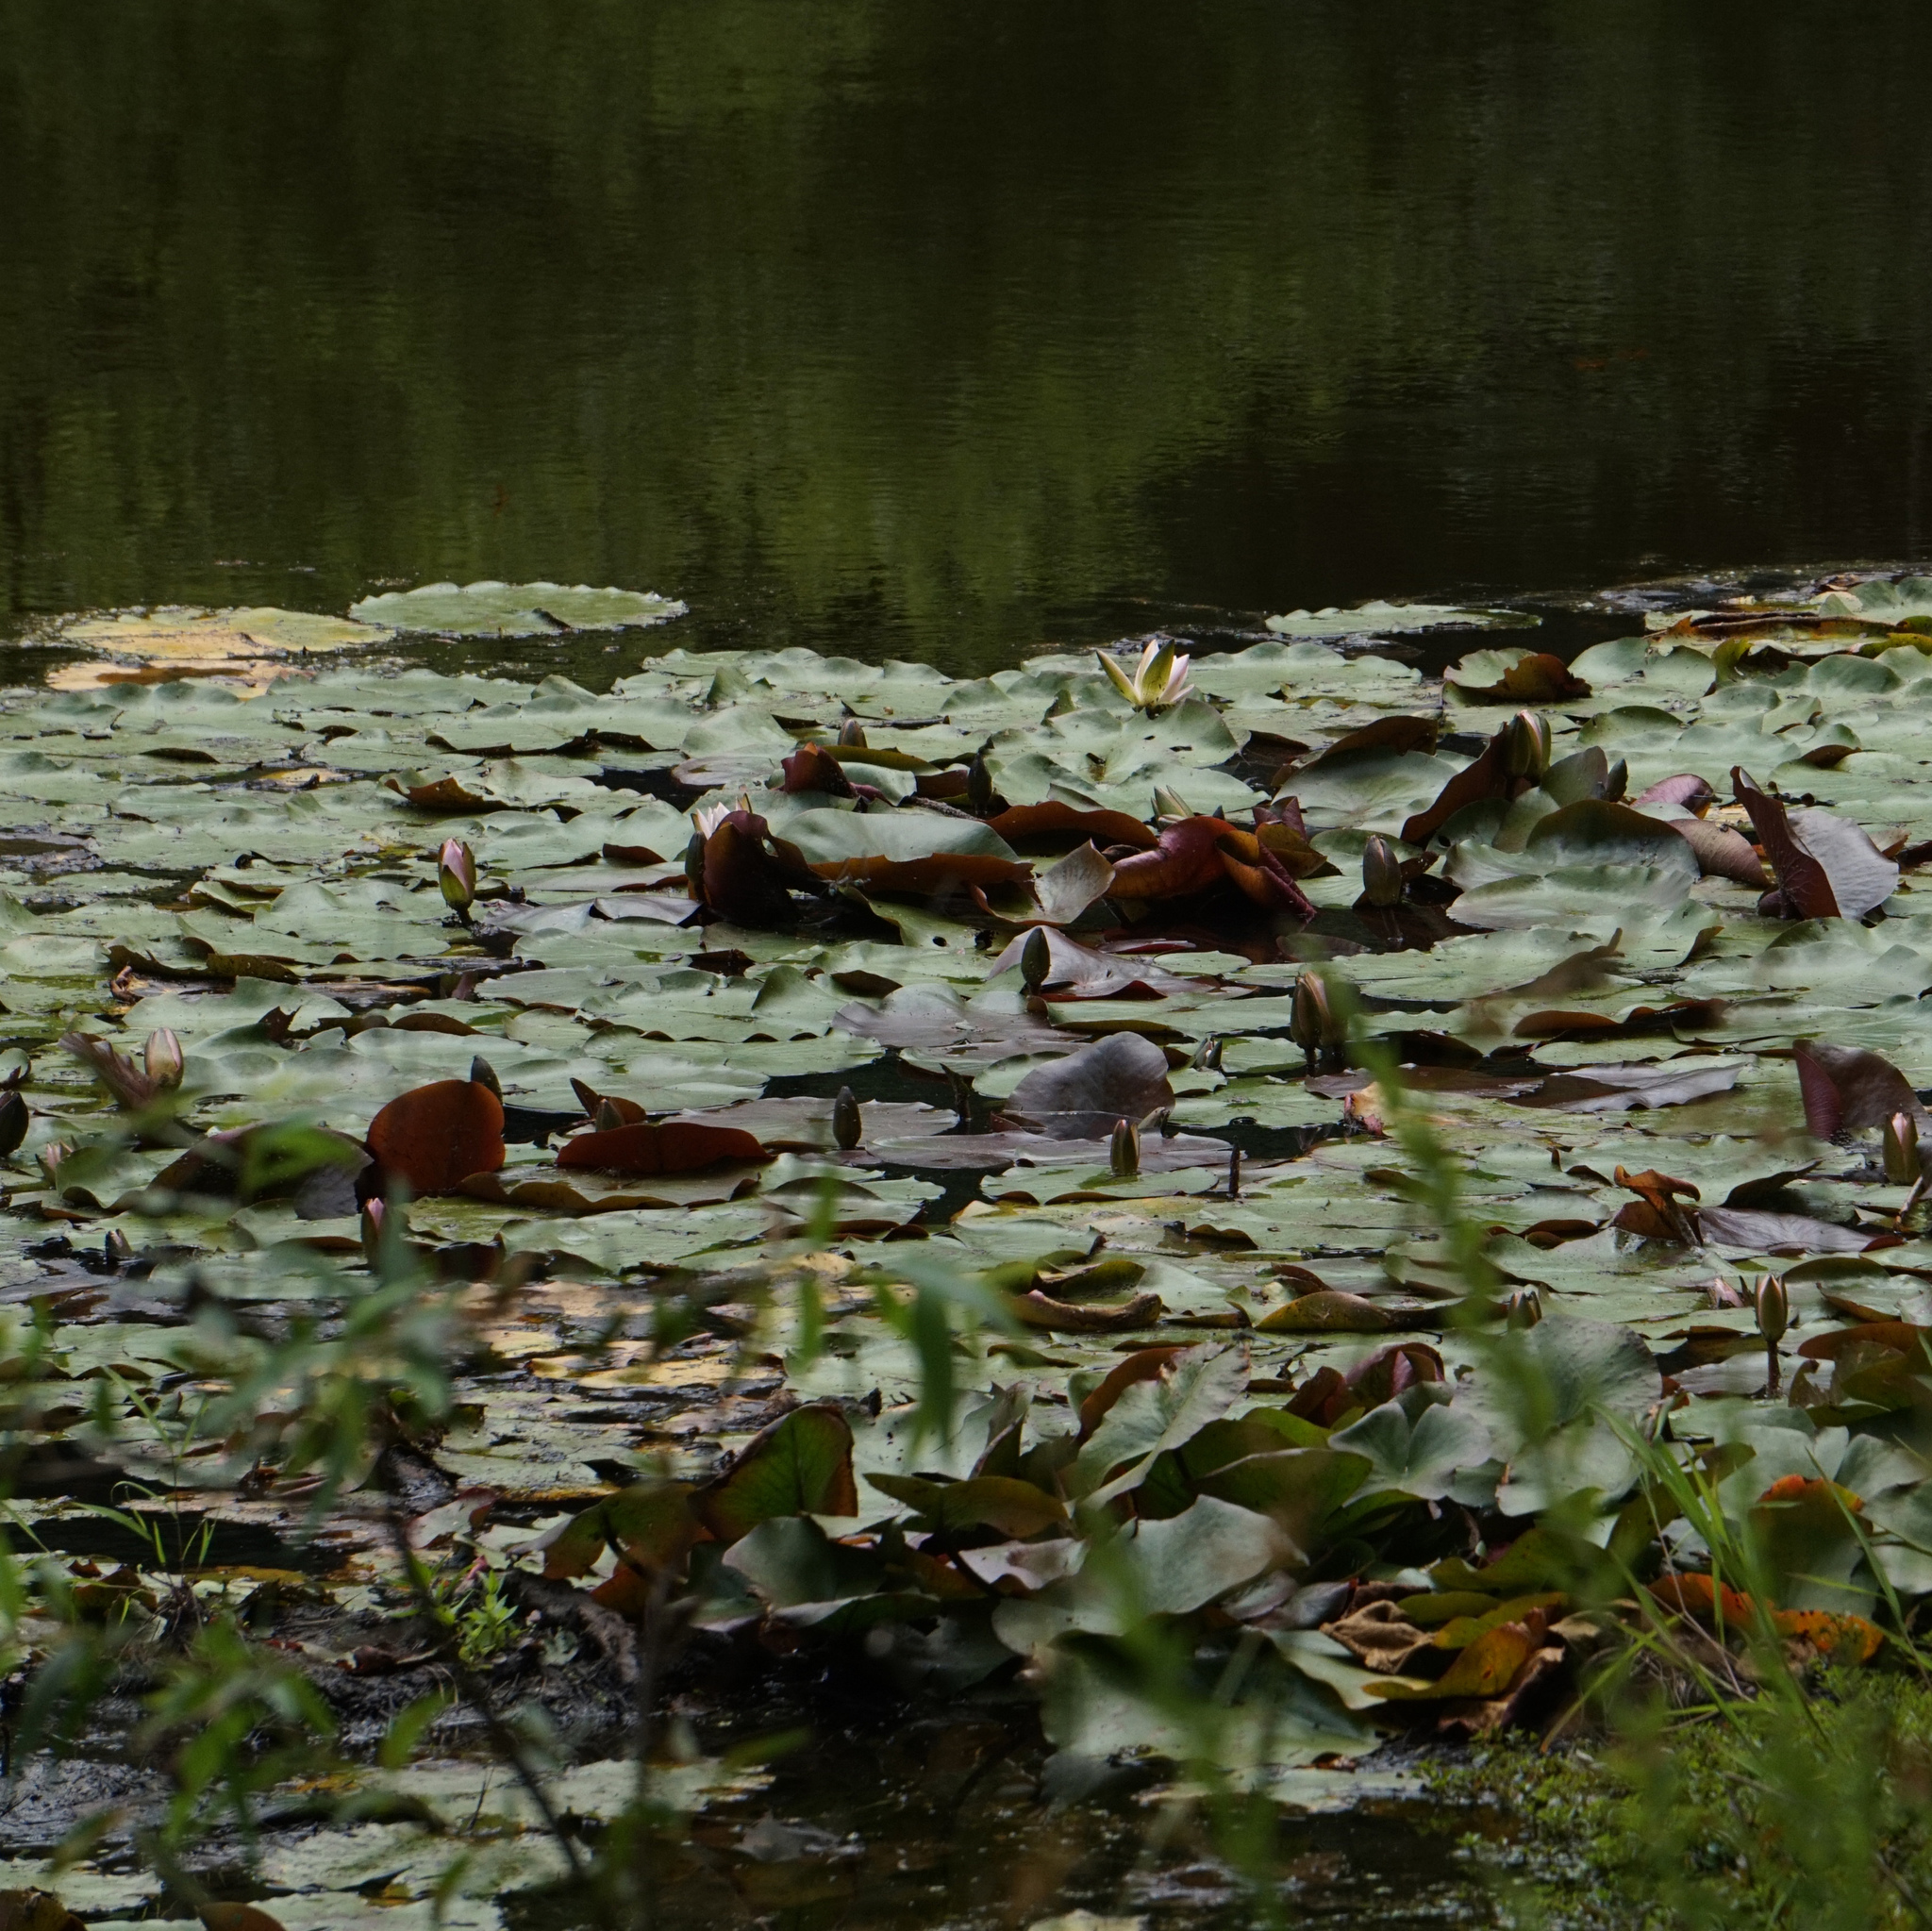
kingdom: Plantae
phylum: Tracheophyta
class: Magnoliopsida
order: Nymphaeales
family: Nymphaeaceae
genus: Nymphaea
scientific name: Nymphaea odorata
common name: Fragrant water-lily
